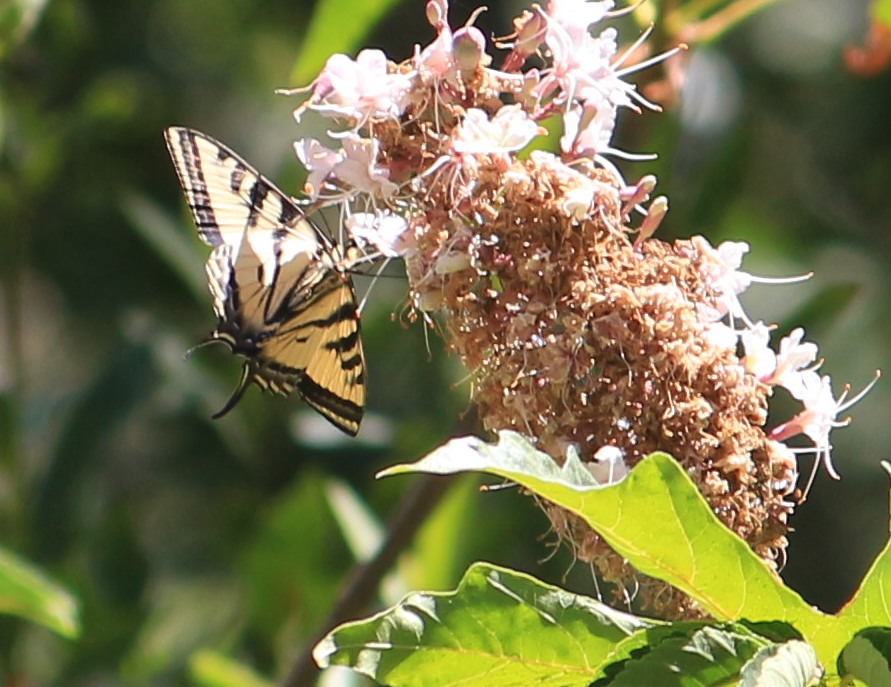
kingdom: Animalia
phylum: Arthropoda
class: Insecta
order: Lepidoptera
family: Papilionidae
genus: Papilio
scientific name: Papilio rutulus
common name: Western tiger swallowtail
